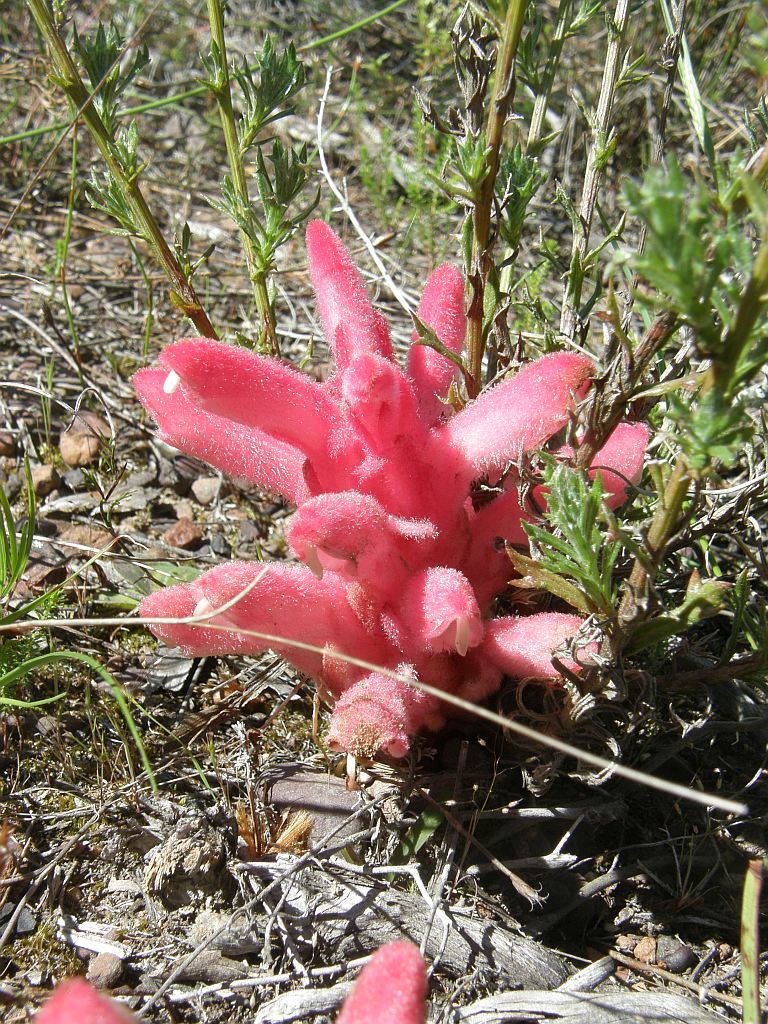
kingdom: Plantae
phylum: Tracheophyta
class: Magnoliopsida
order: Lamiales
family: Orobanchaceae
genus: Hyobanche
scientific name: Hyobanche sanguinea
